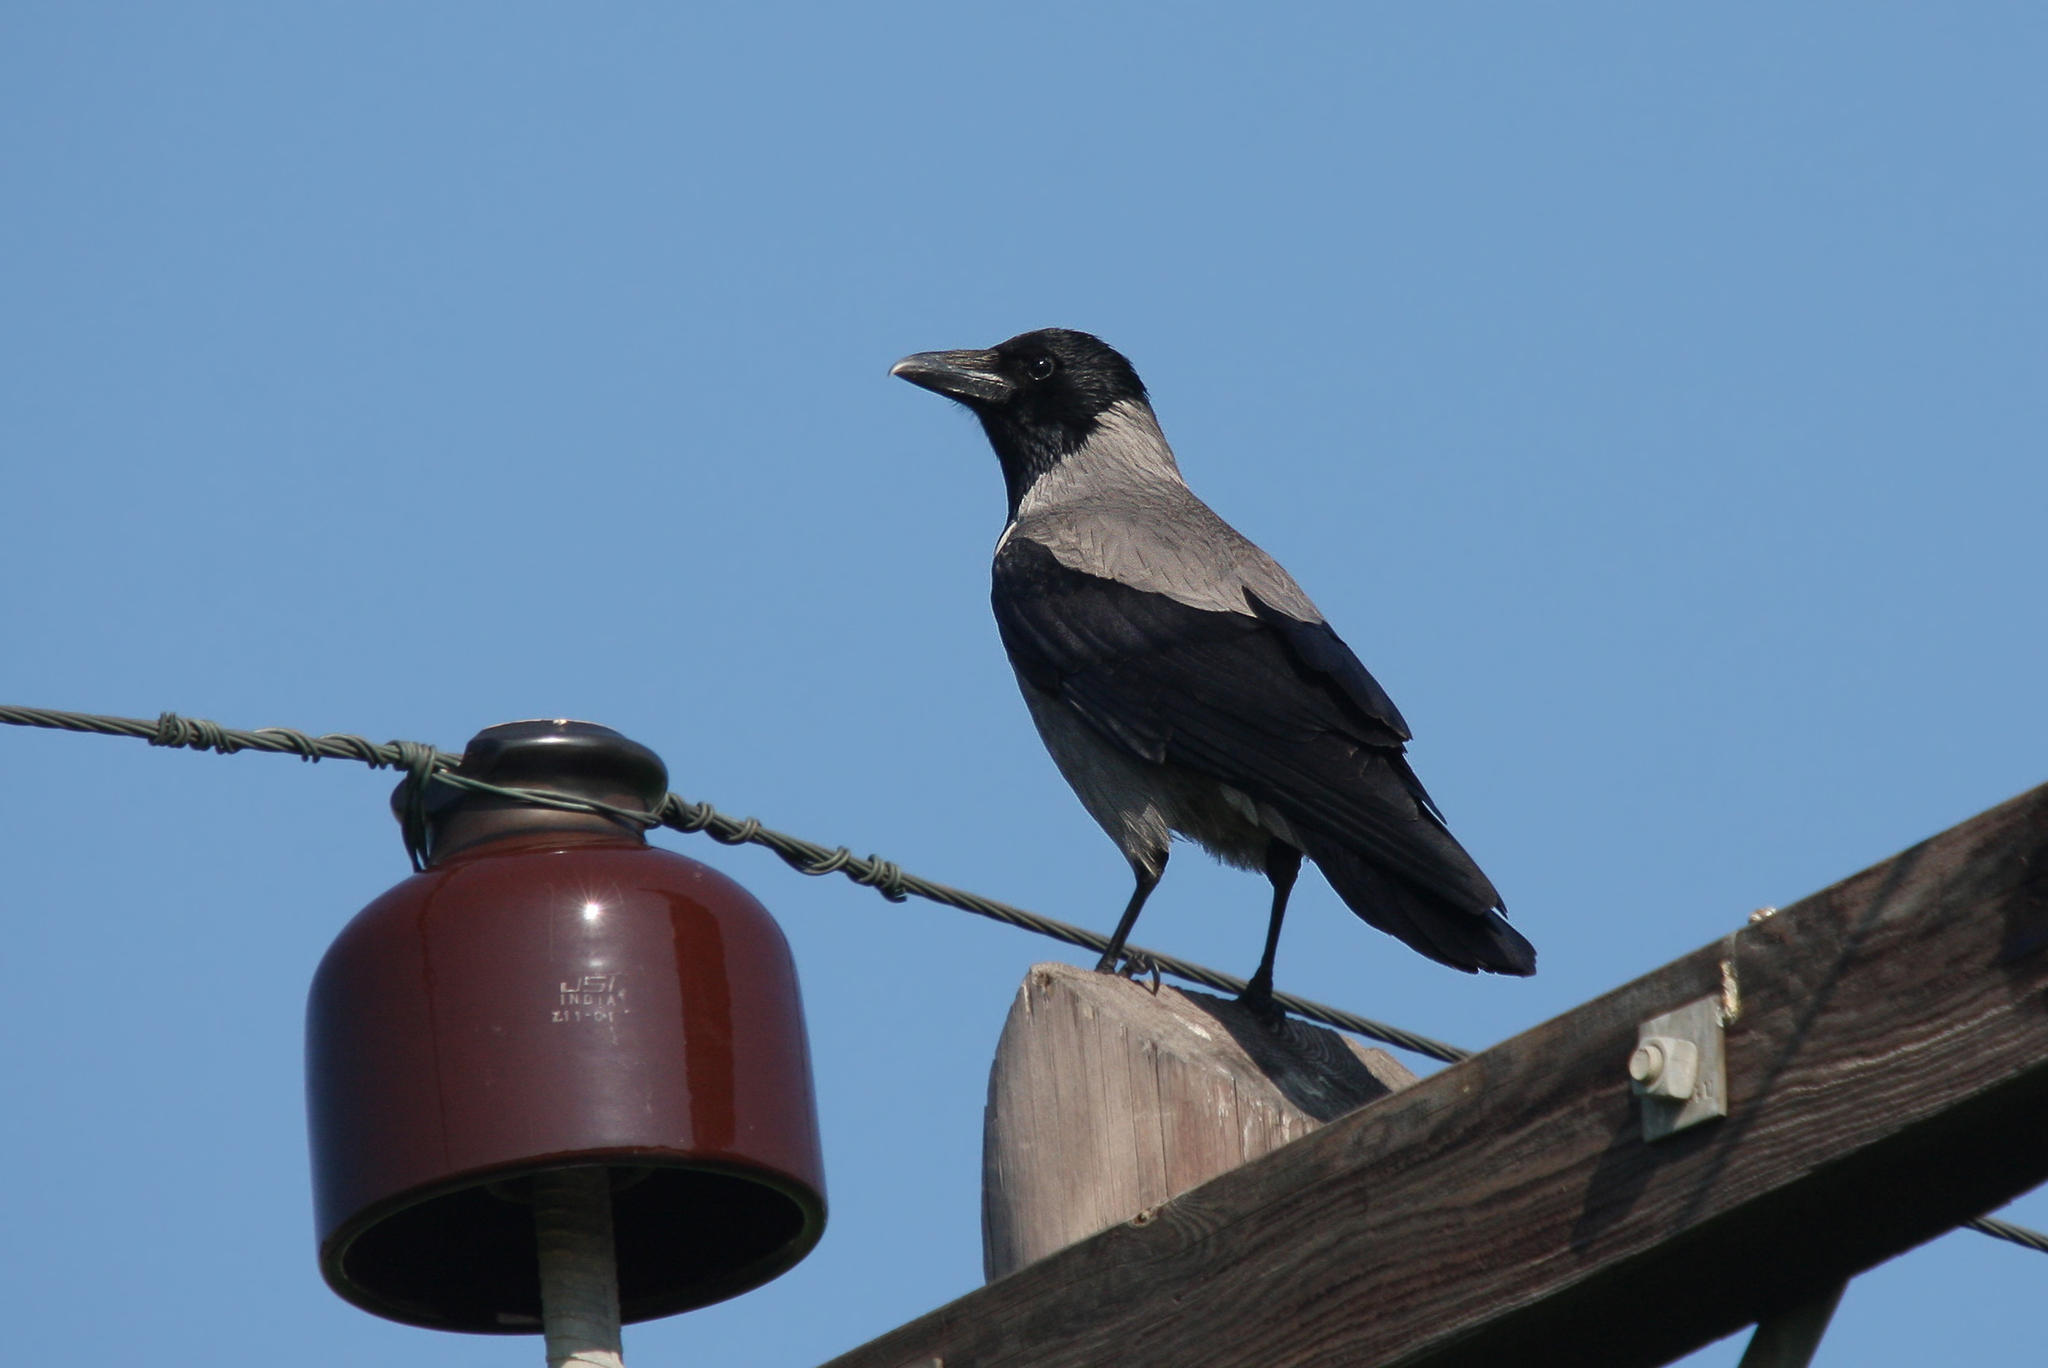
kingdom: Animalia
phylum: Chordata
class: Aves
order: Passeriformes
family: Corvidae
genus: Corvus
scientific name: Corvus cornix
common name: Hooded crow
